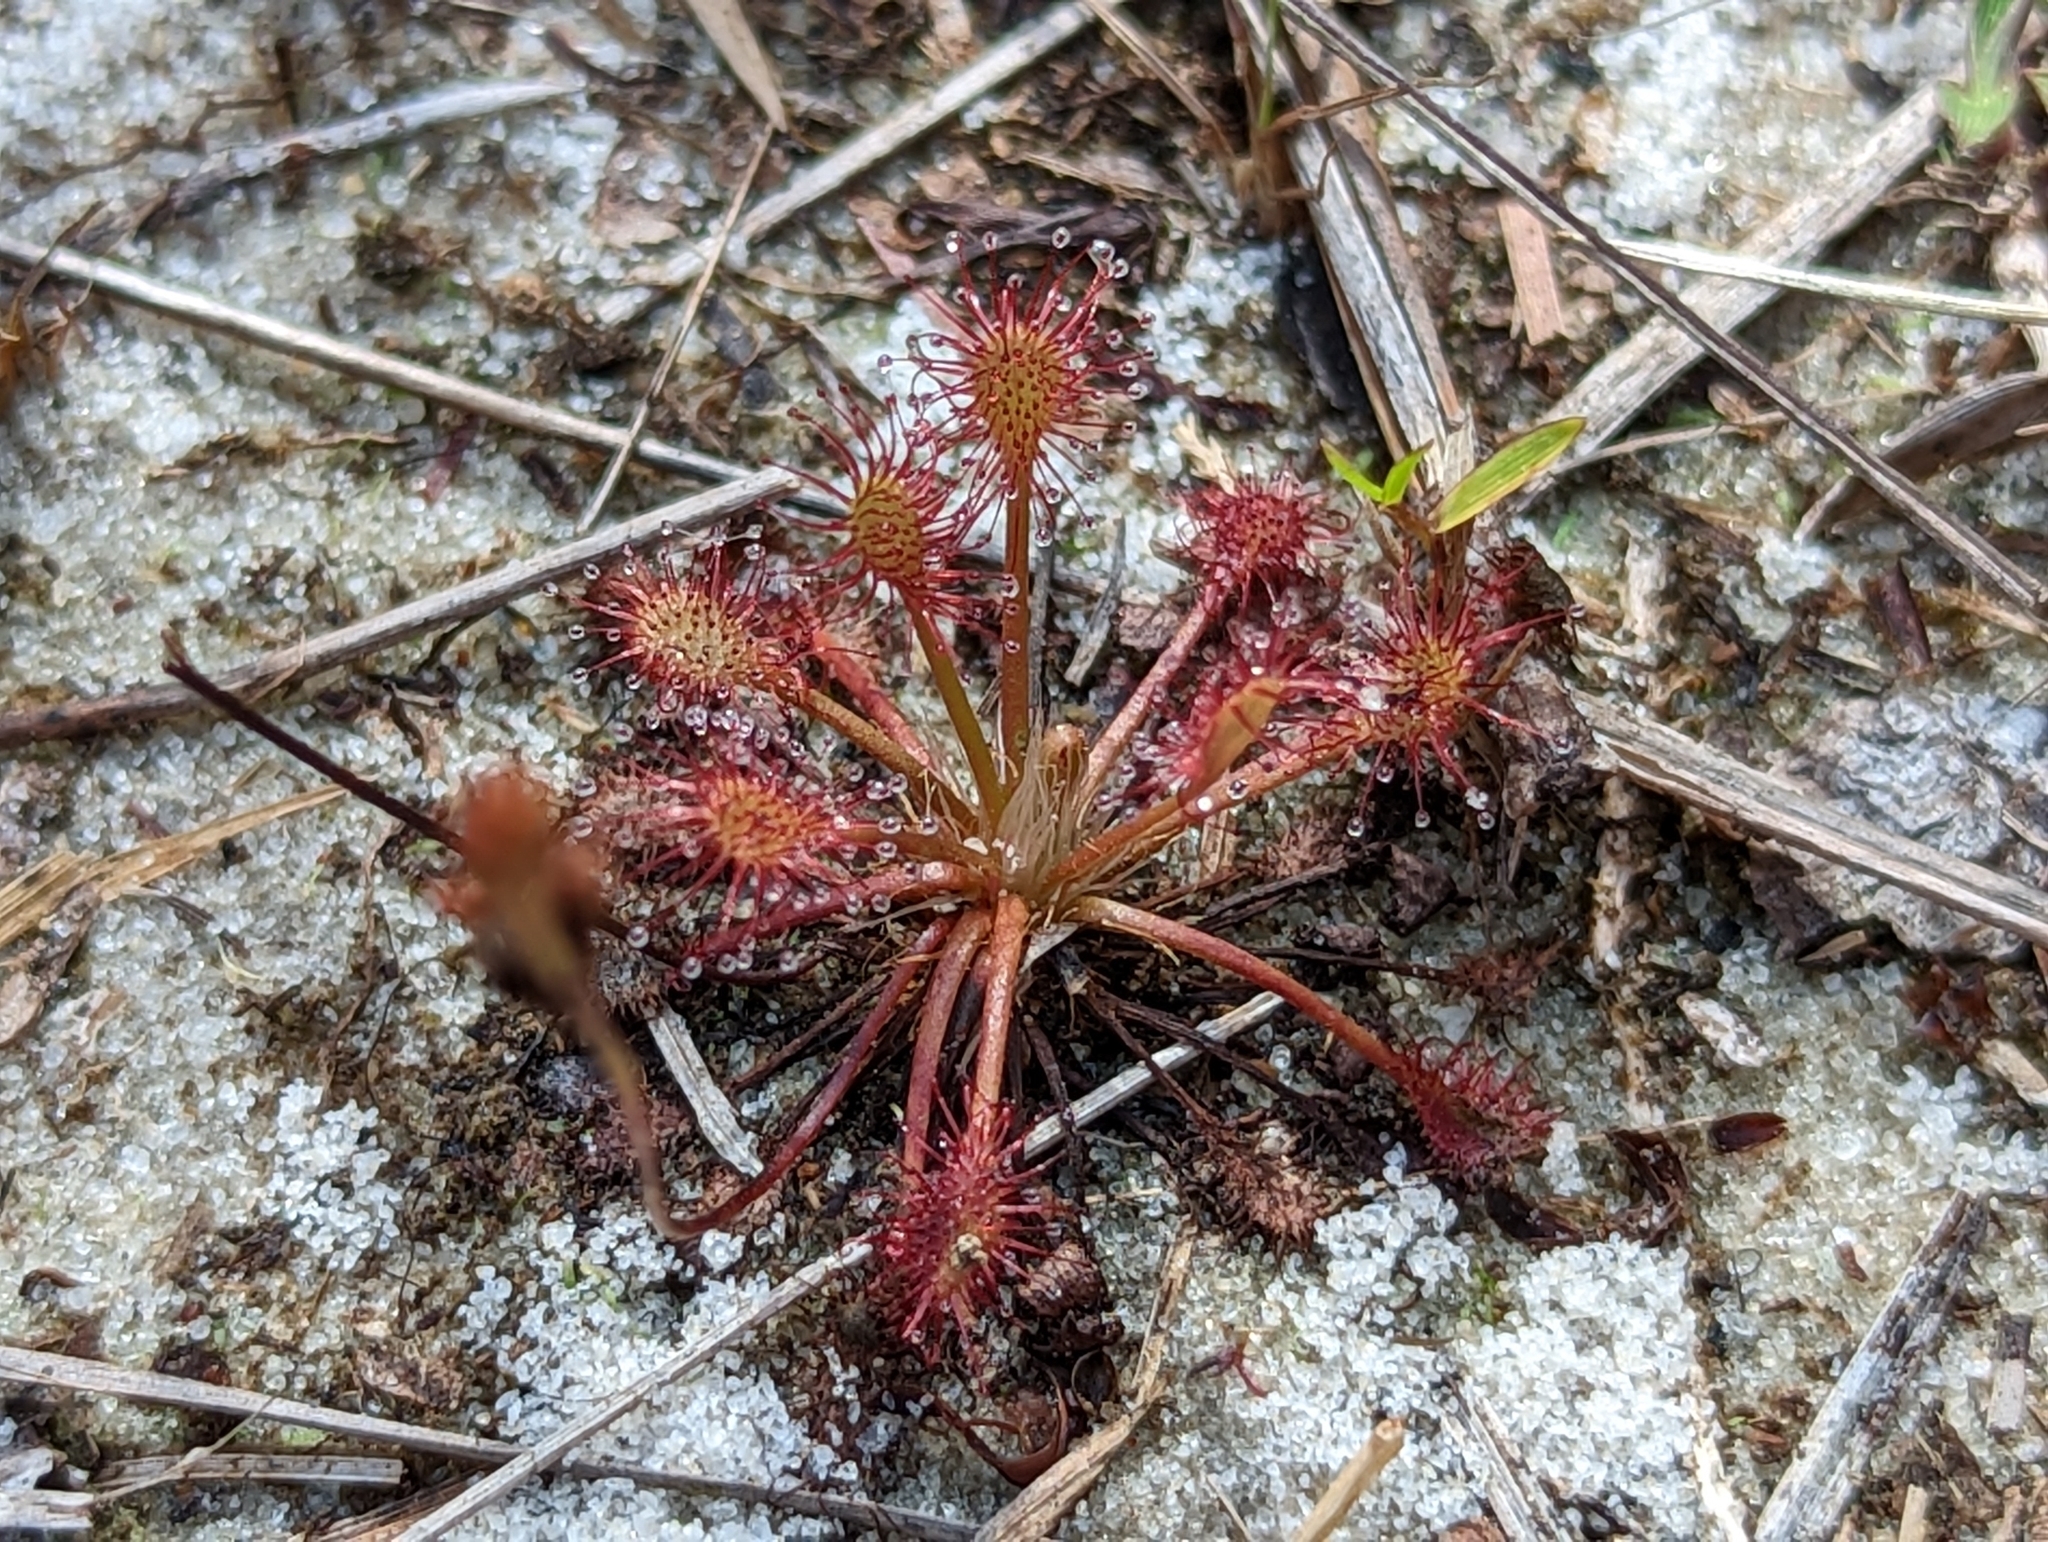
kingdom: Plantae
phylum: Tracheophyta
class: Magnoliopsida
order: Caryophyllales
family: Droseraceae
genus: Drosera
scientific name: Drosera intermedia
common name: Oblong-leaved sundew
